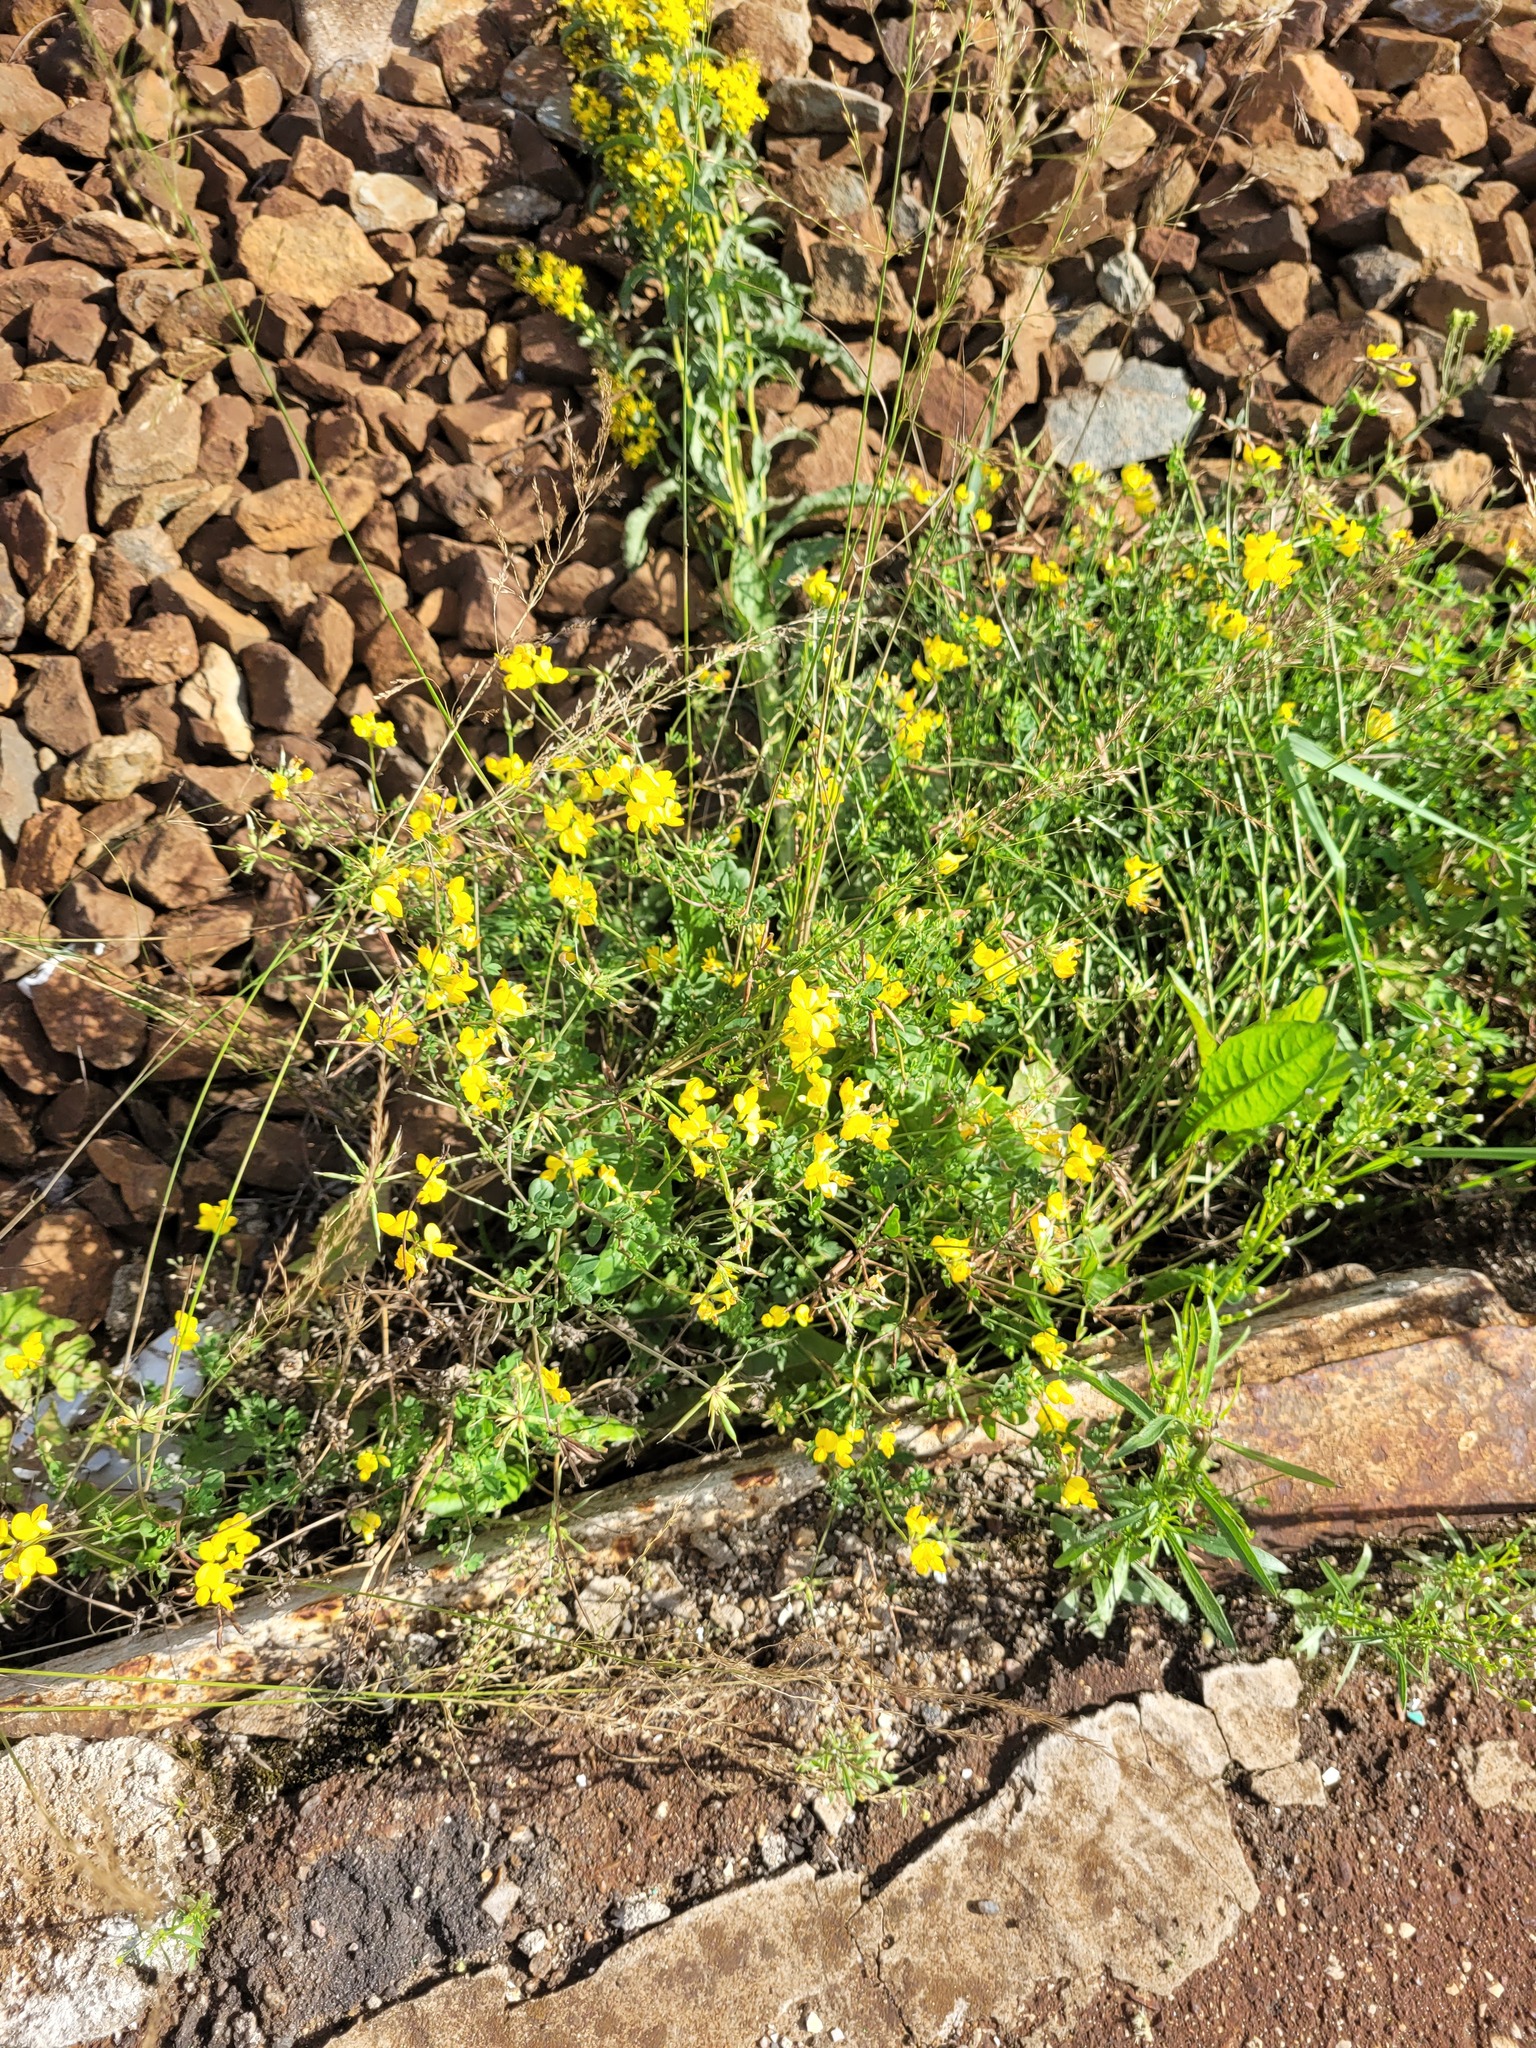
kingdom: Plantae
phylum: Tracheophyta
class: Magnoliopsida
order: Fabales
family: Fabaceae
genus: Lotus
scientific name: Lotus corniculatus
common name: Common bird's-foot-trefoil
